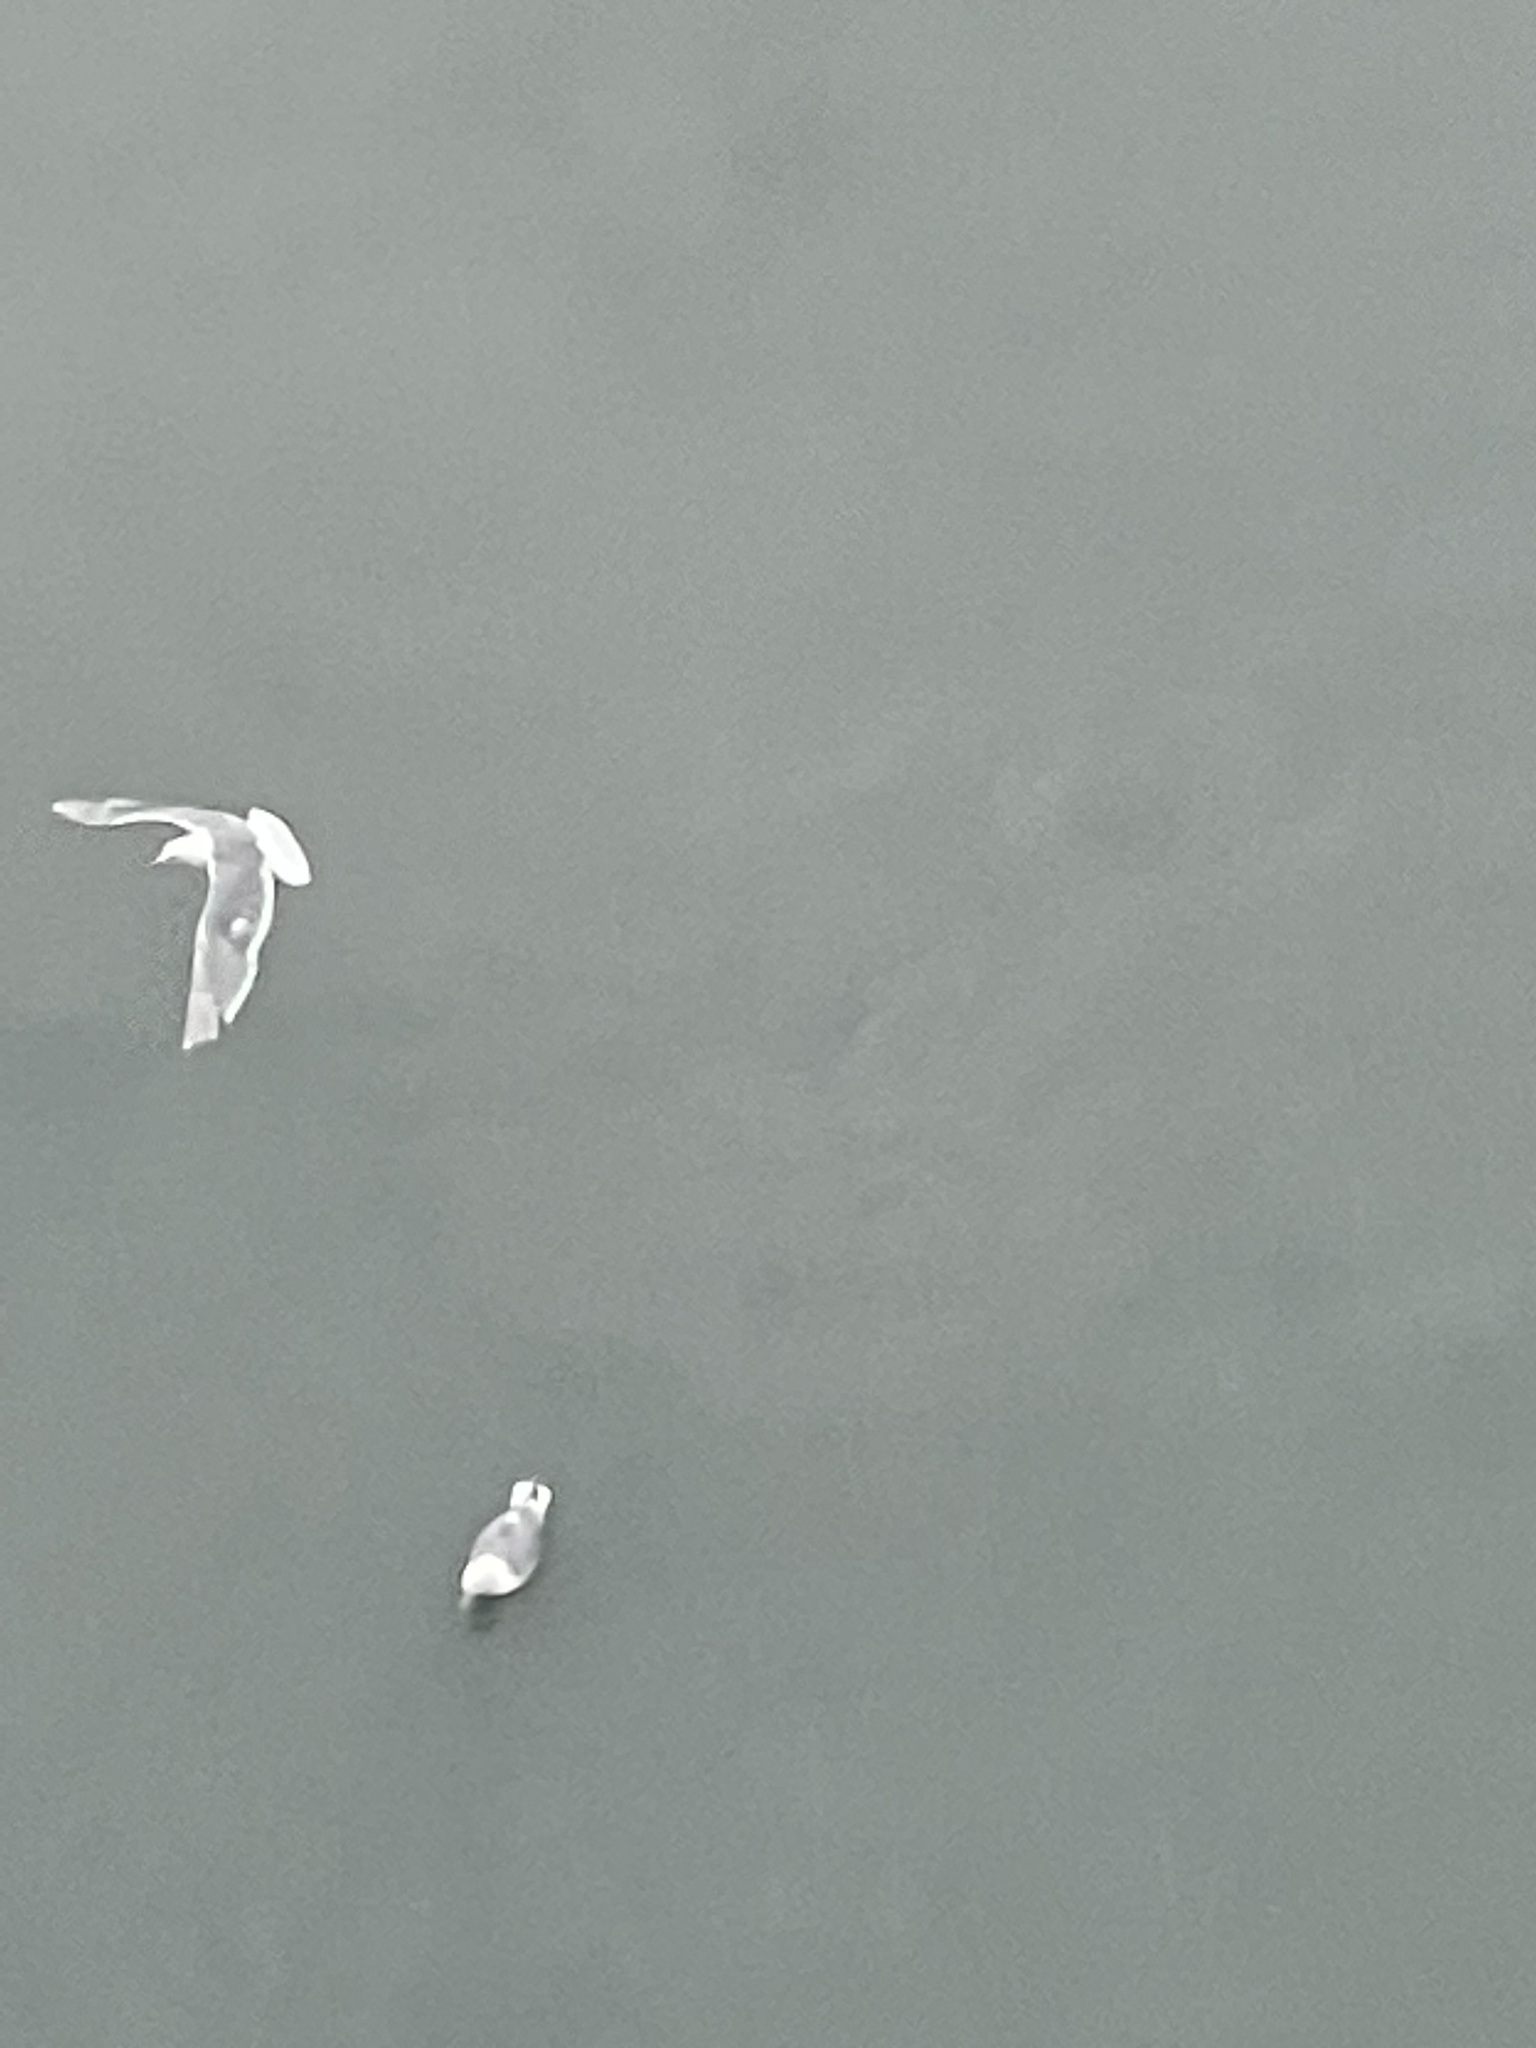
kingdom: Animalia
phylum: Chordata
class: Aves
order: Charadriiformes
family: Laridae
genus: Larus
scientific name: Larus glaucescens
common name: Glaucous-winged gull
